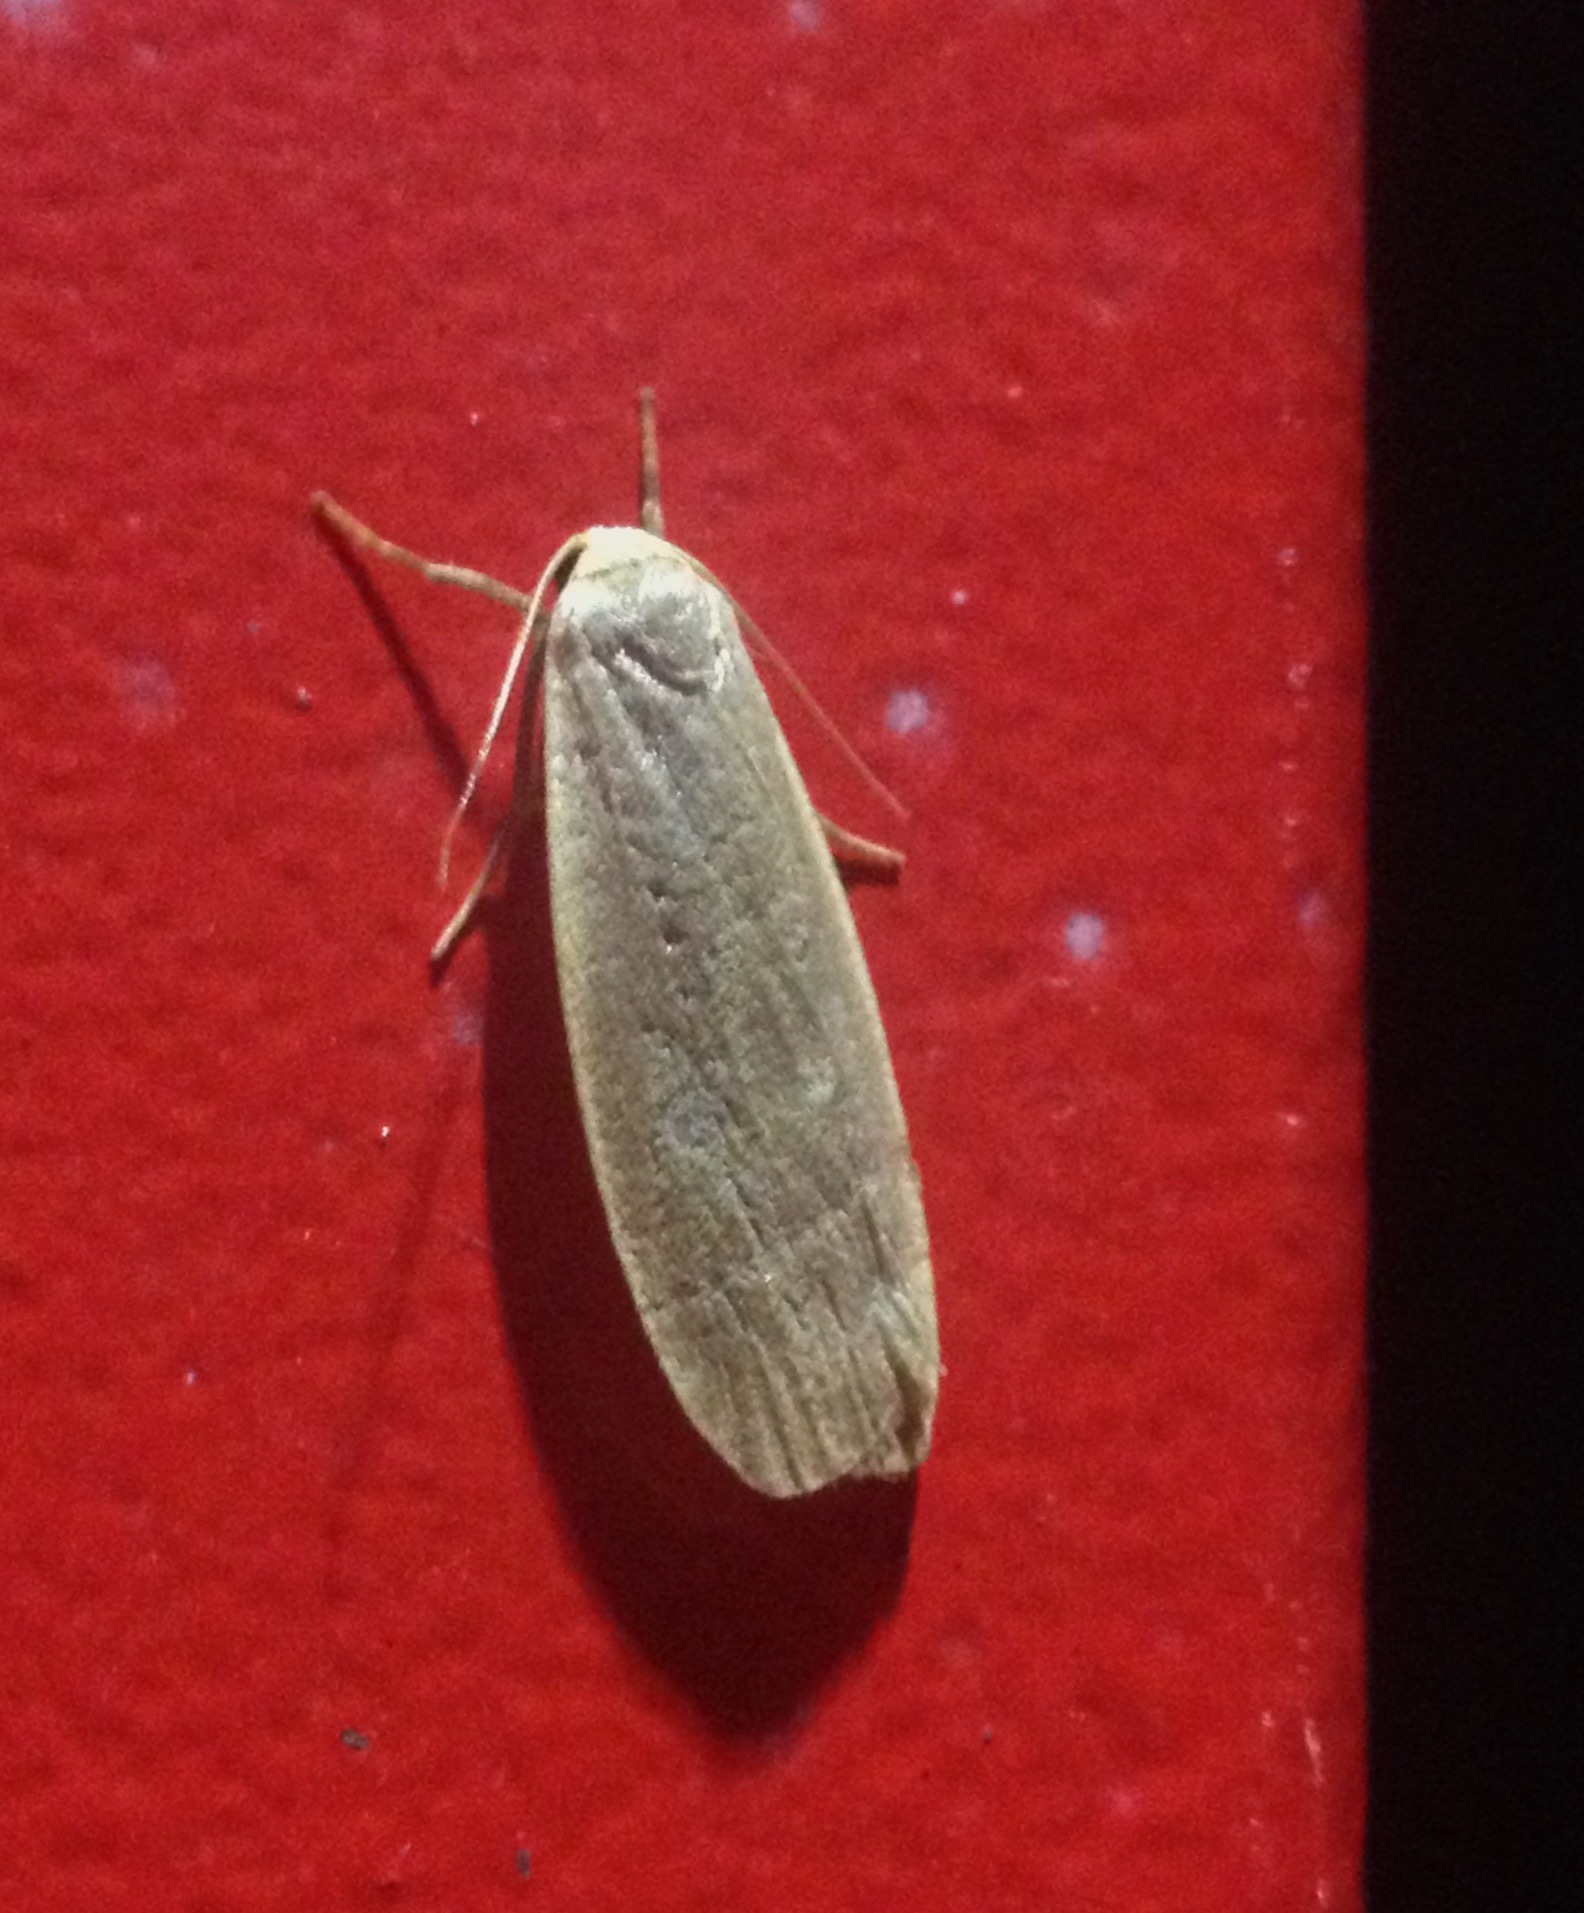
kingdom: Animalia
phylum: Arthropoda
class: Insecta
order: Lepidoptera
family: Erebidae
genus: Collita
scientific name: Collita griseola
